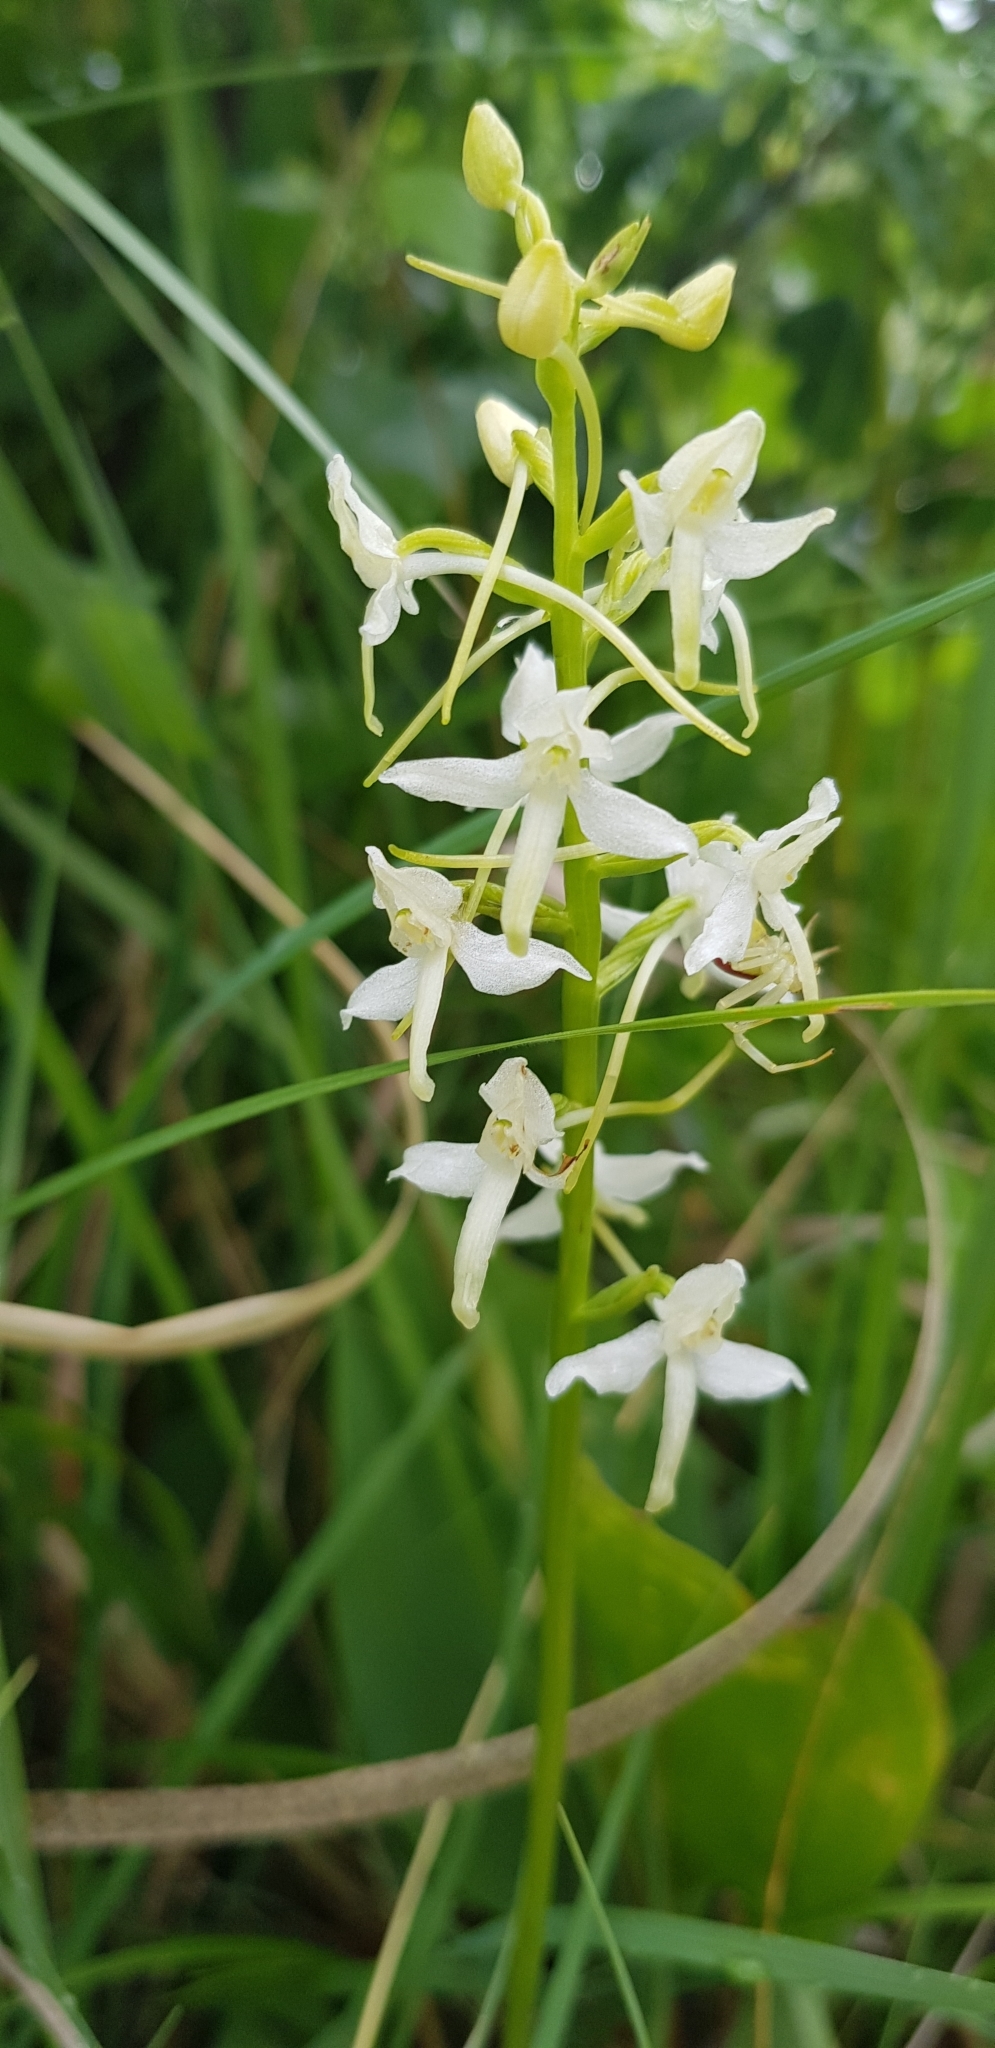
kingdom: Plantae
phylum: Tracheophyta
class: Liliopsida
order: Asparagales
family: Orchidaceae
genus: Platanthera
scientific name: Platanthera bifolia
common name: Lesser butterfly-orchid
